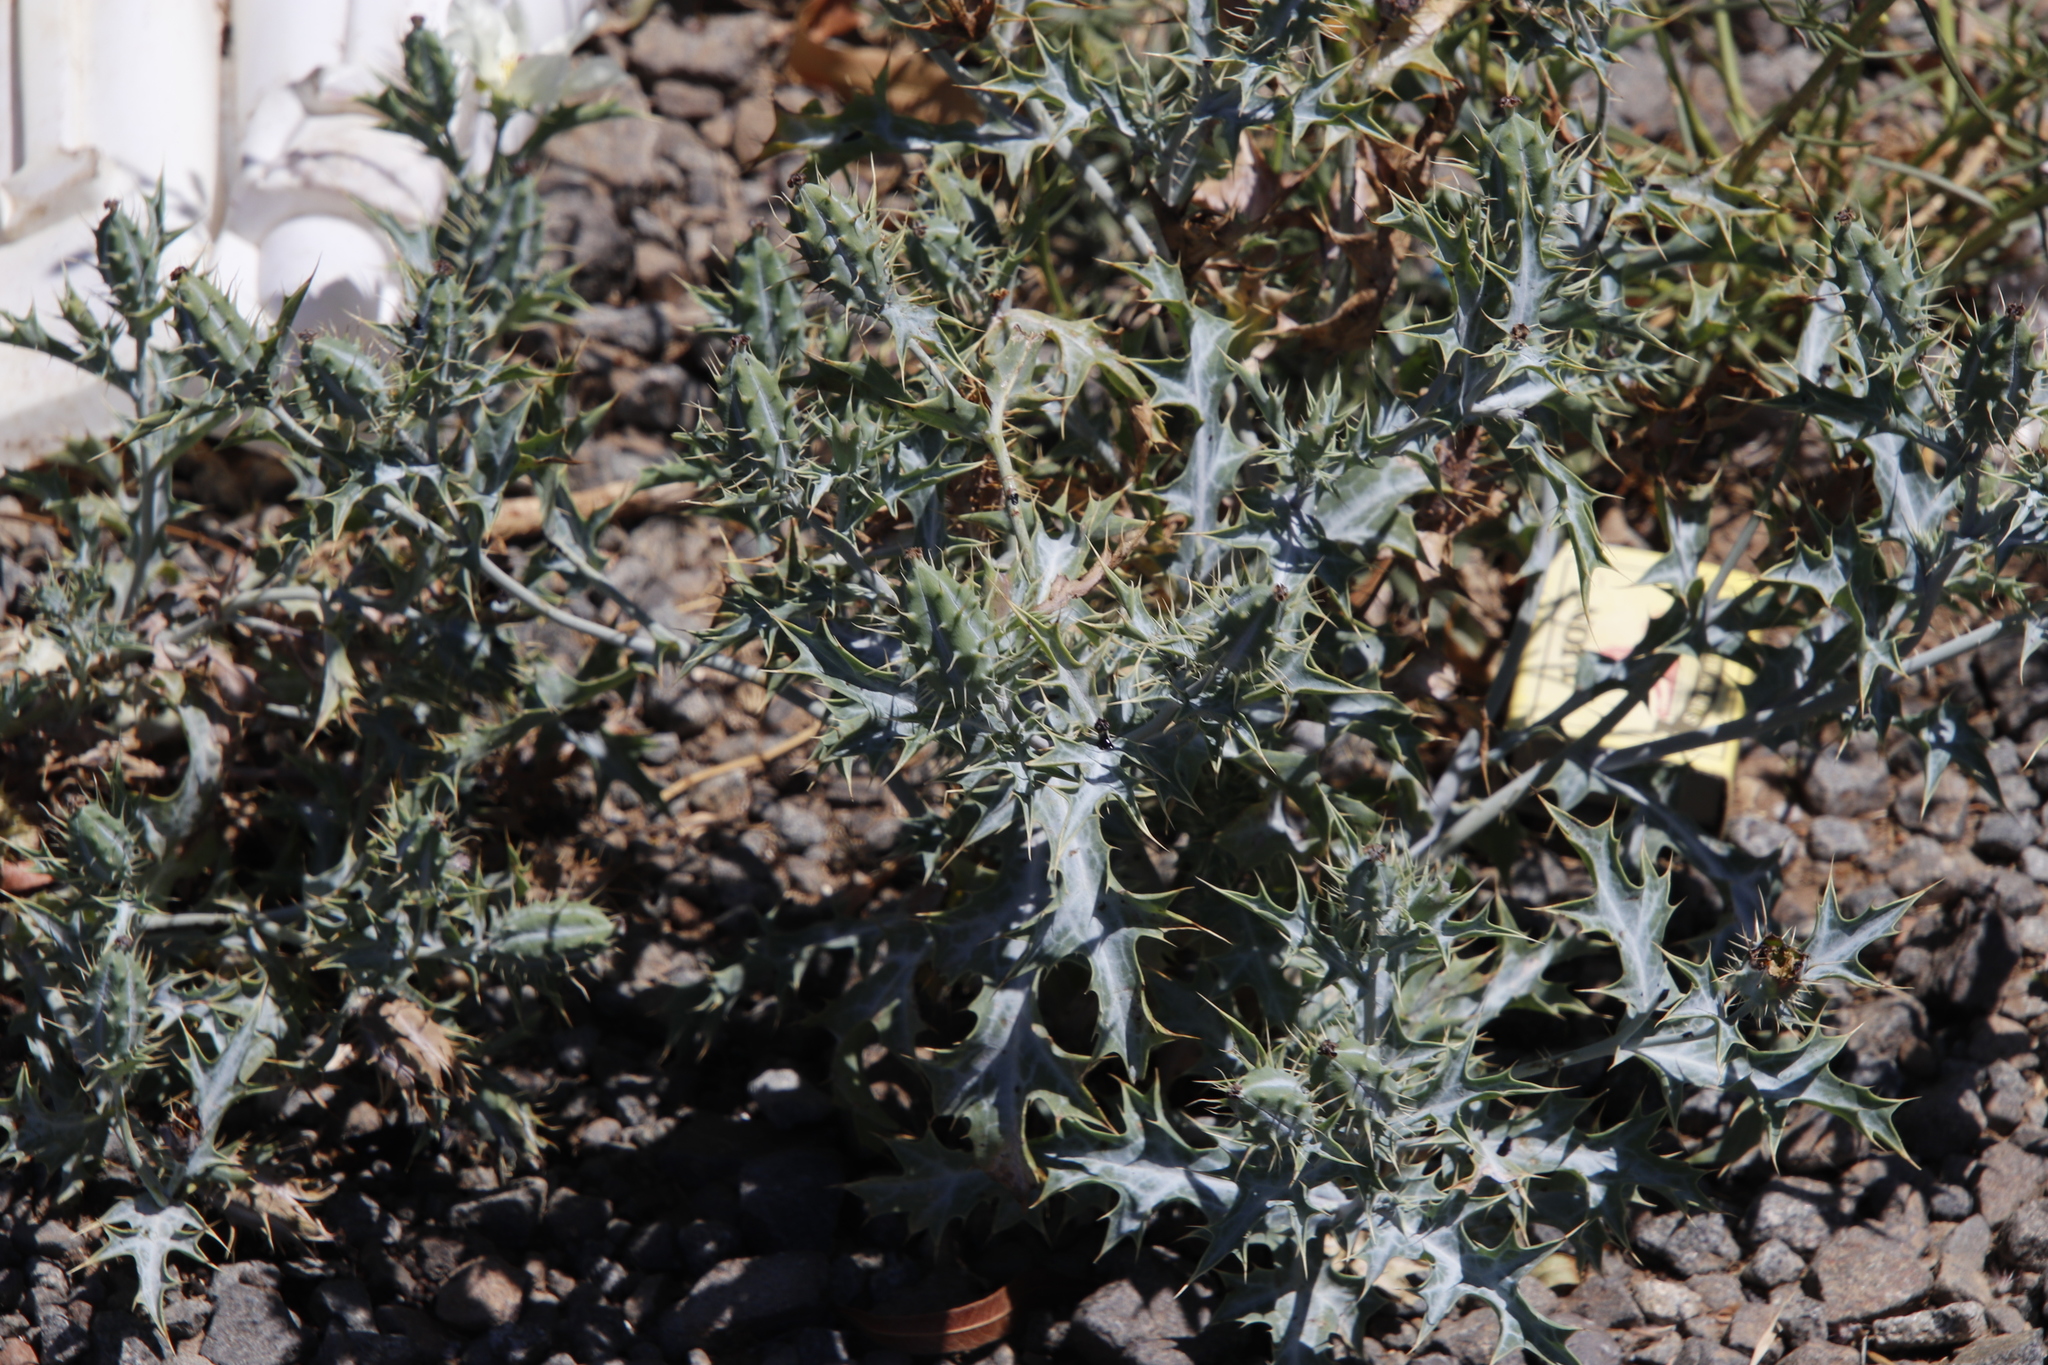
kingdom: Plantae
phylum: Tracheophyta
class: Magnoliopsida
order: Ranunculales
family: Papaveraceae
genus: Argemone
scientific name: Argemone ochroleuca
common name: White-flower mexican-poppy
